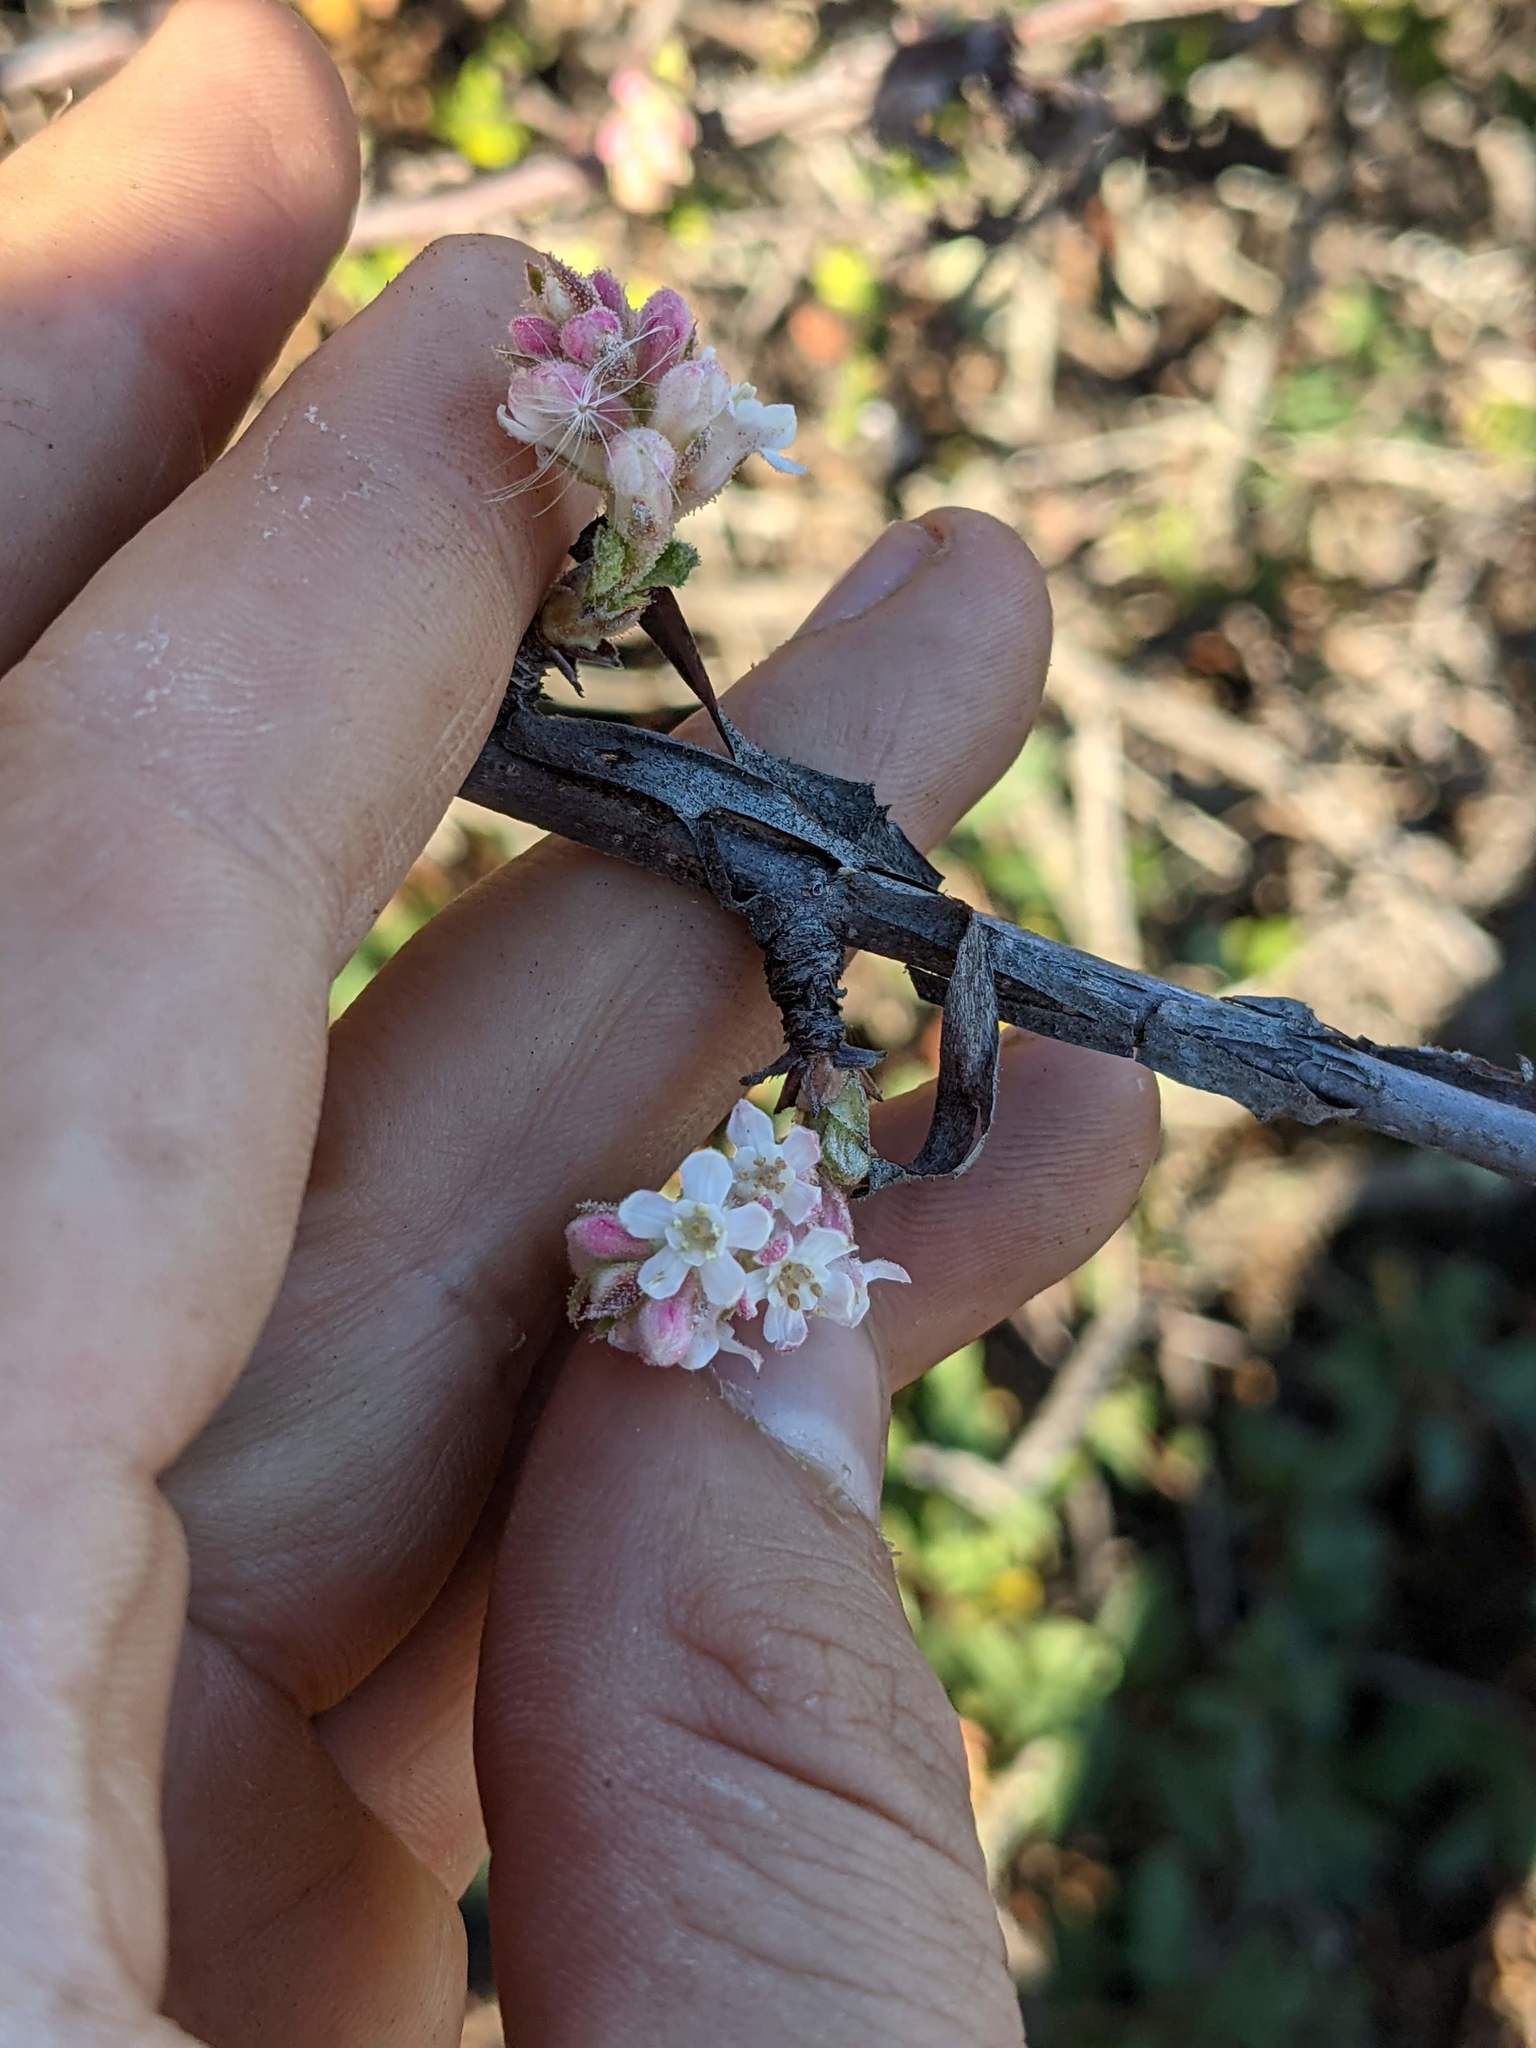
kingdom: Plantae
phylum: Tracheophyta
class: Magnoliopsida
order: Saxifragales
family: Grossulariaceae
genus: Ribes
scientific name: Ribes malvaceum
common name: Chaparral currant
